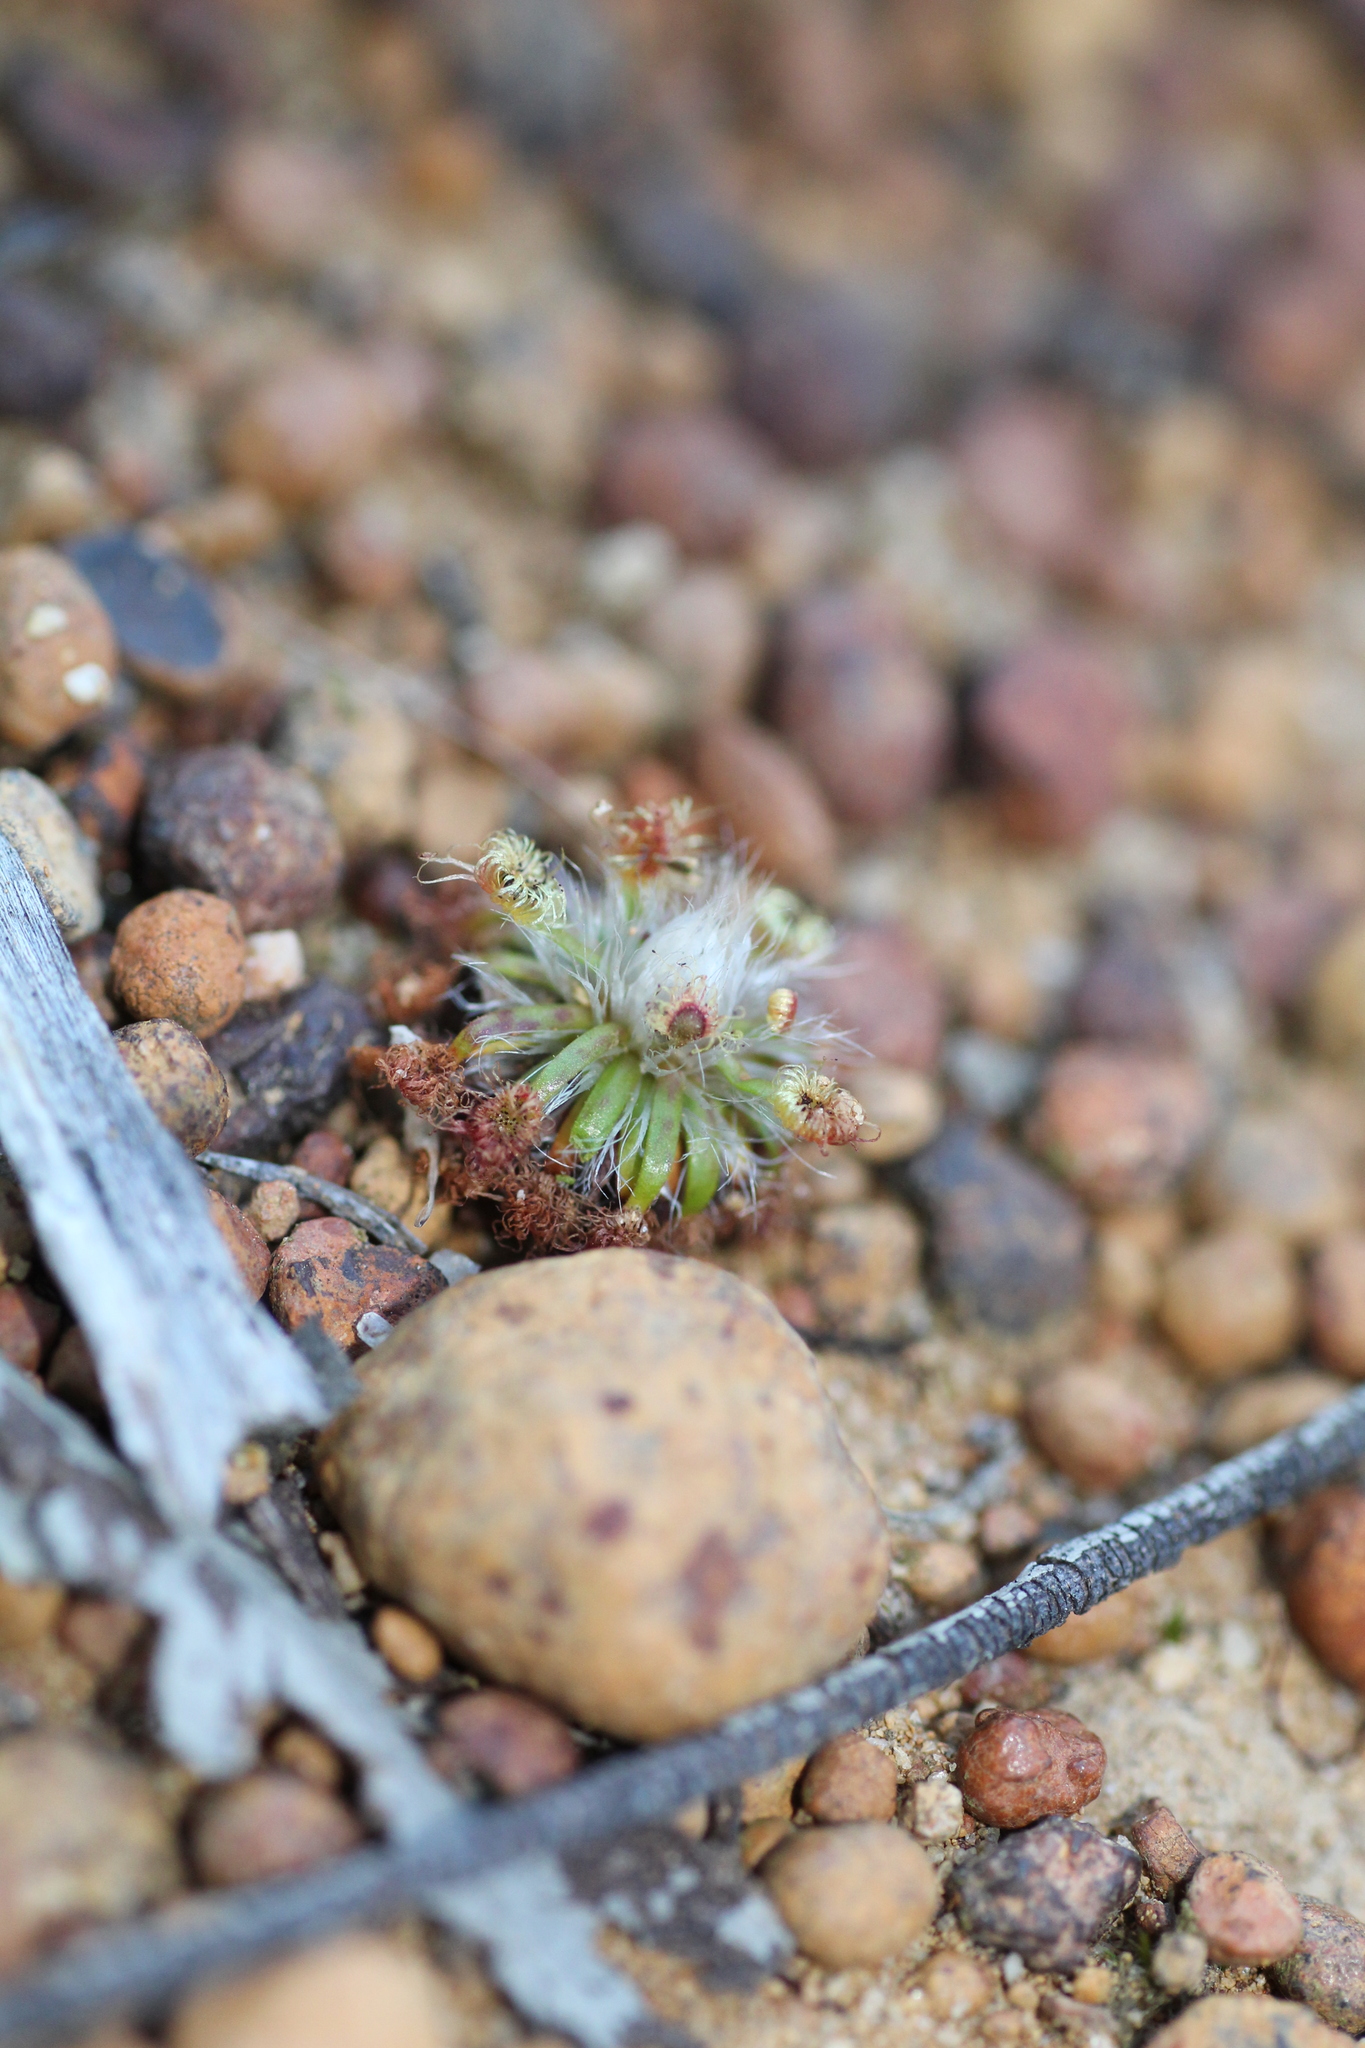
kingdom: Plantae
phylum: Tracheophyta
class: Magnoliopsida
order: Caryophyllales
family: Droseraceae
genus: Drosera
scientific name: Drosera hyperostigma
